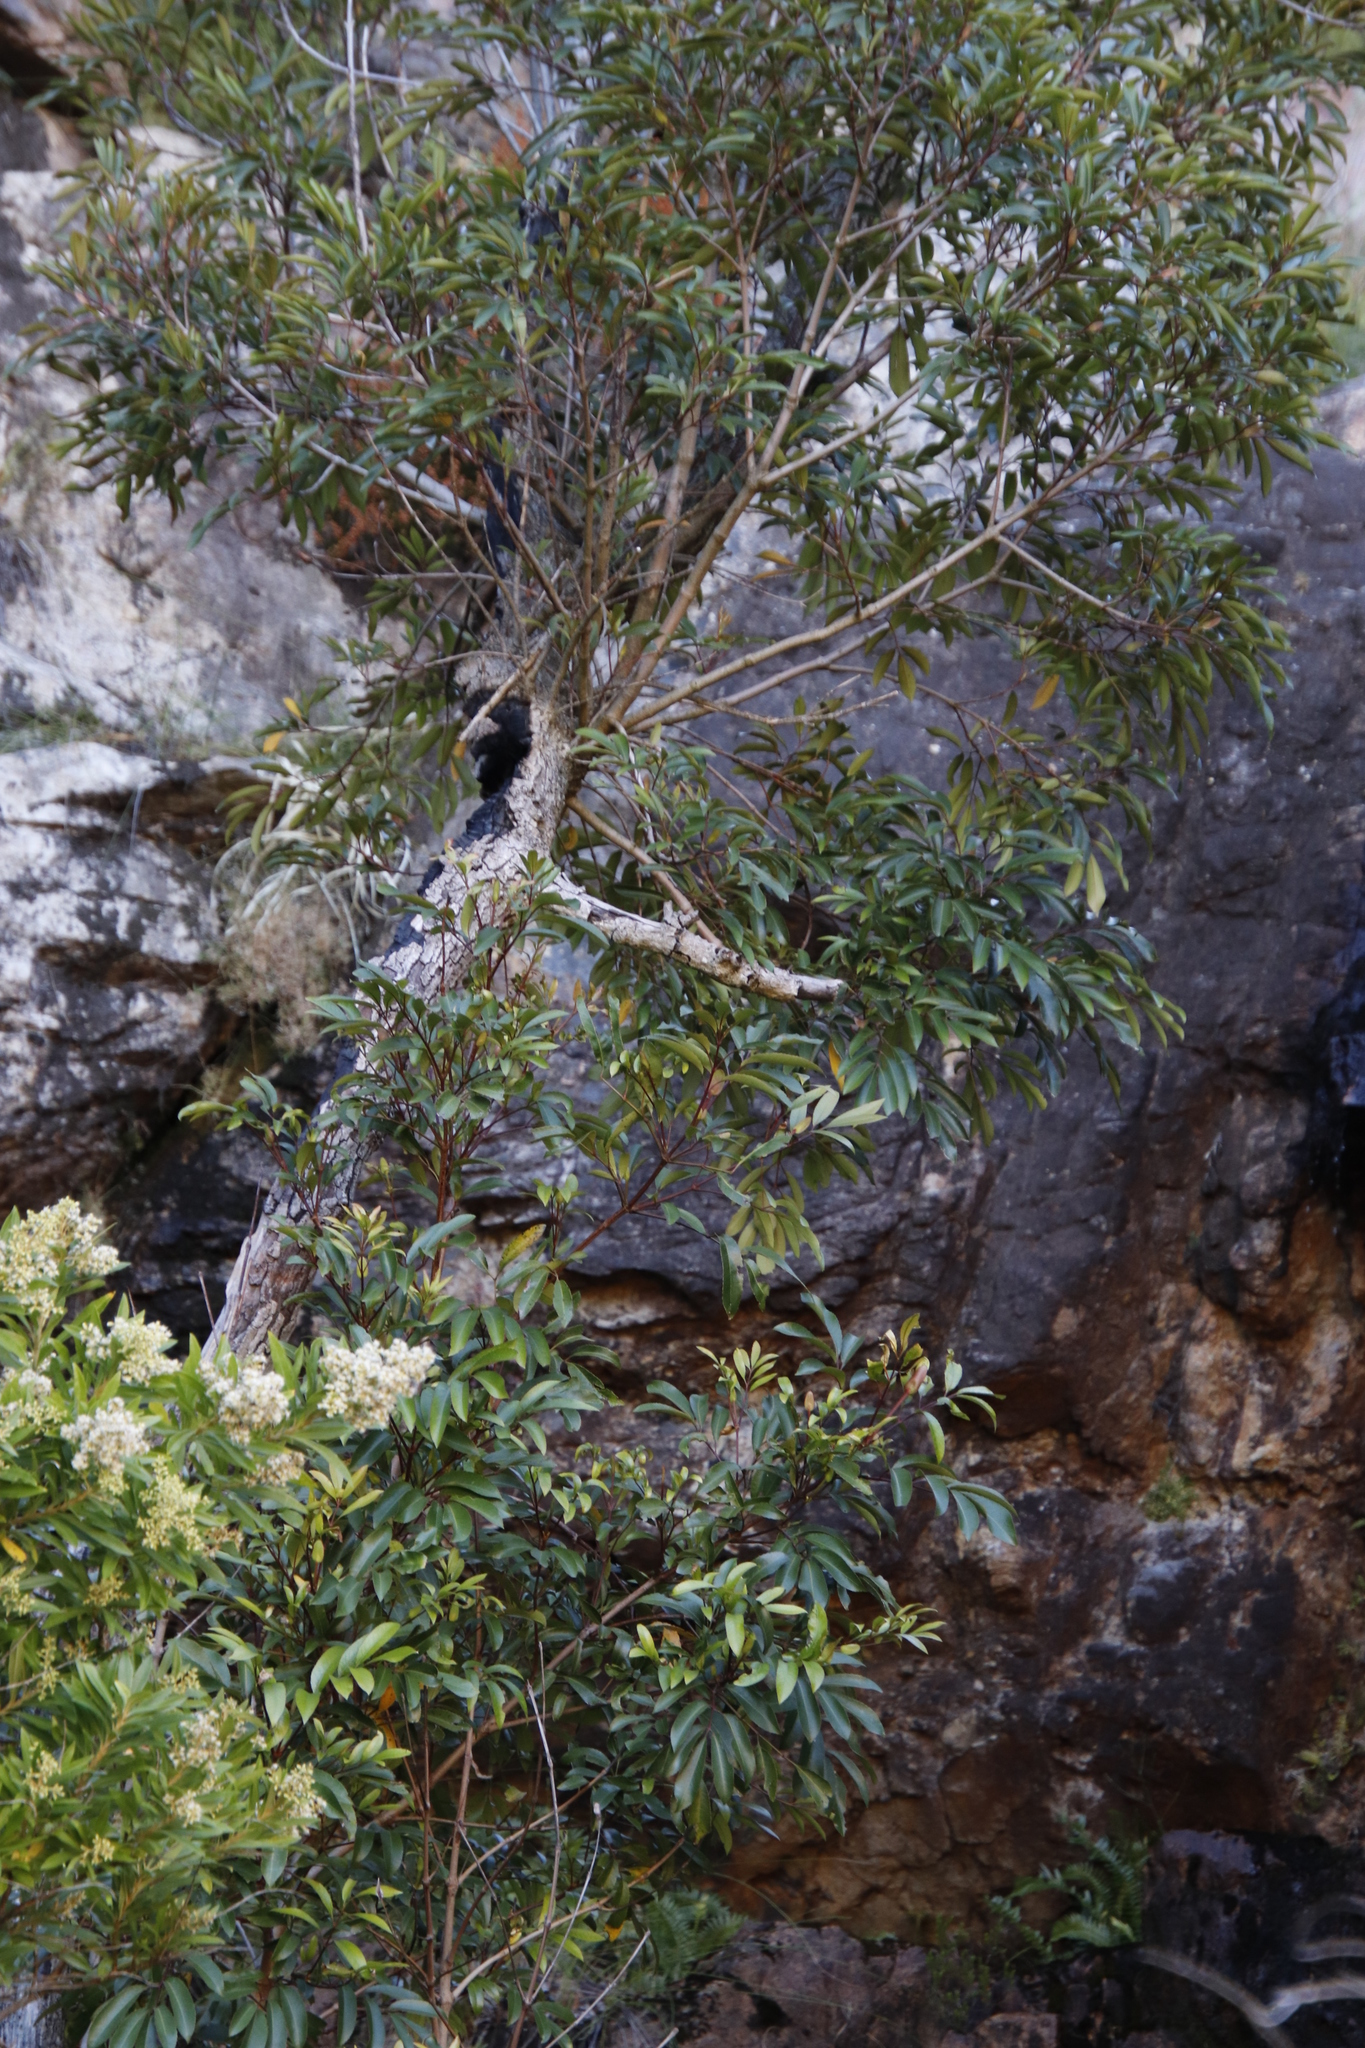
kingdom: Plantae
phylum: Tracheophyta
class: Magnoliopsida
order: Oxalidales
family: Cunoniaceae
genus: Cunonia
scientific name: Cunonia capensis
